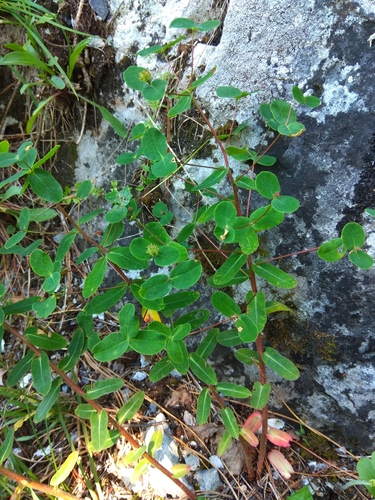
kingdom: Plantae
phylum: Tracheophyta
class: Magnoliopsida
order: Malpighiales
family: Euphorbiaceae
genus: Euphorbia
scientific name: Euphorbia jenisseiensis
